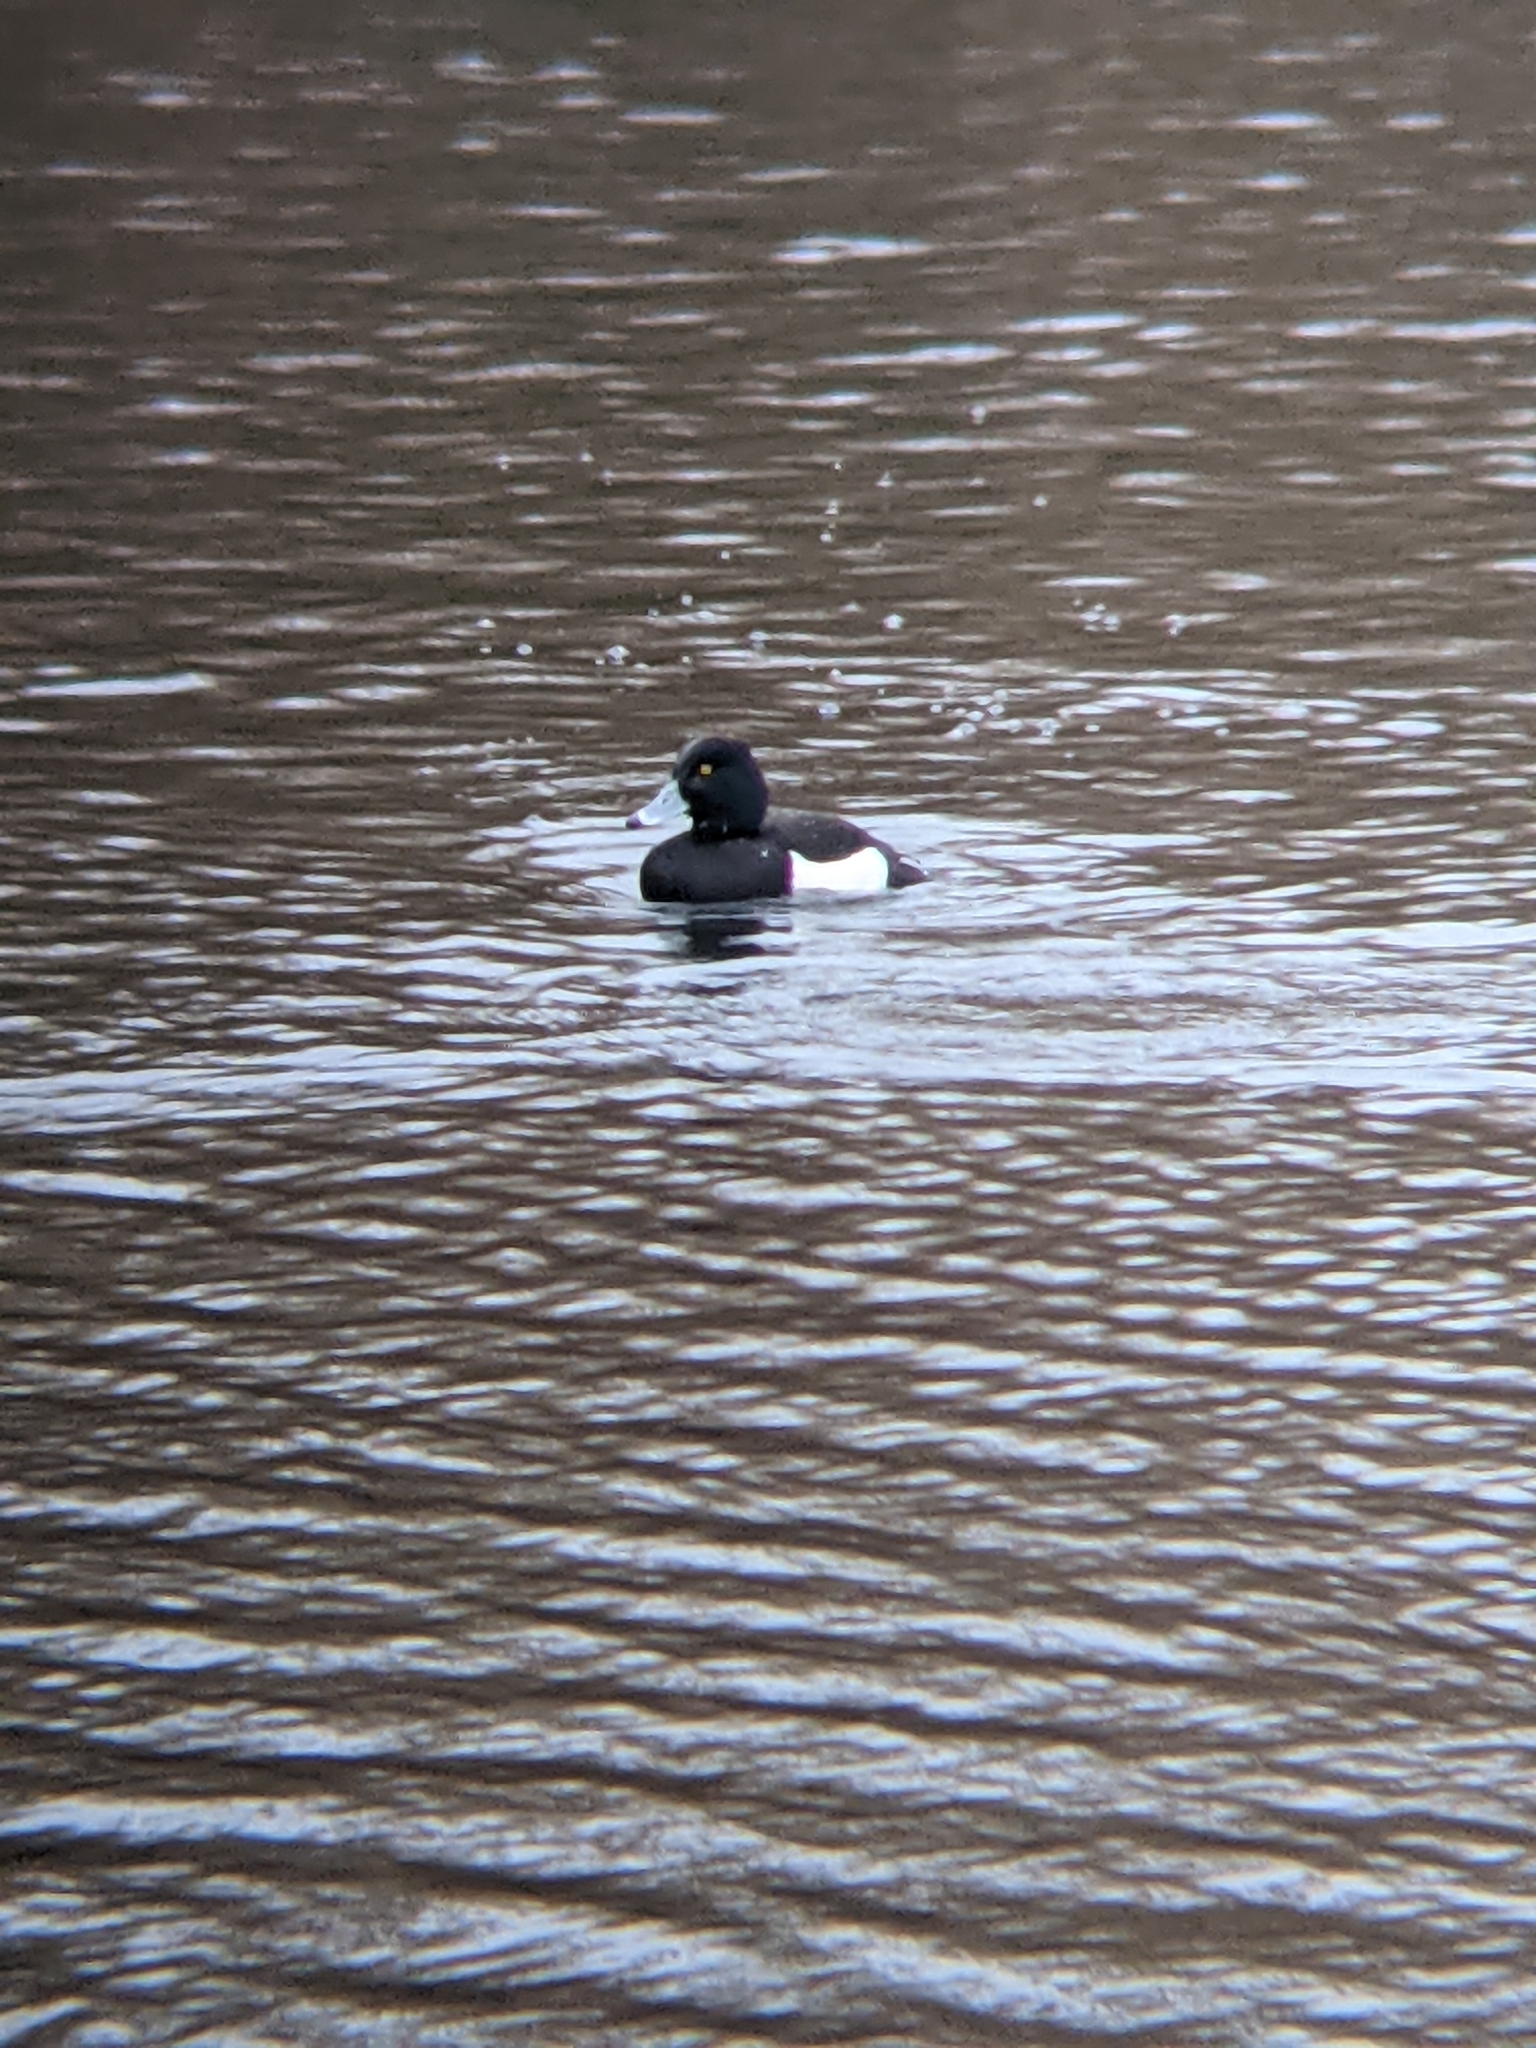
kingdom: Animalia
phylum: Chordata
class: Aves
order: Anseriformes
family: Anatidae
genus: Aythya
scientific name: Aythya fuligula
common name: Tufted duck
